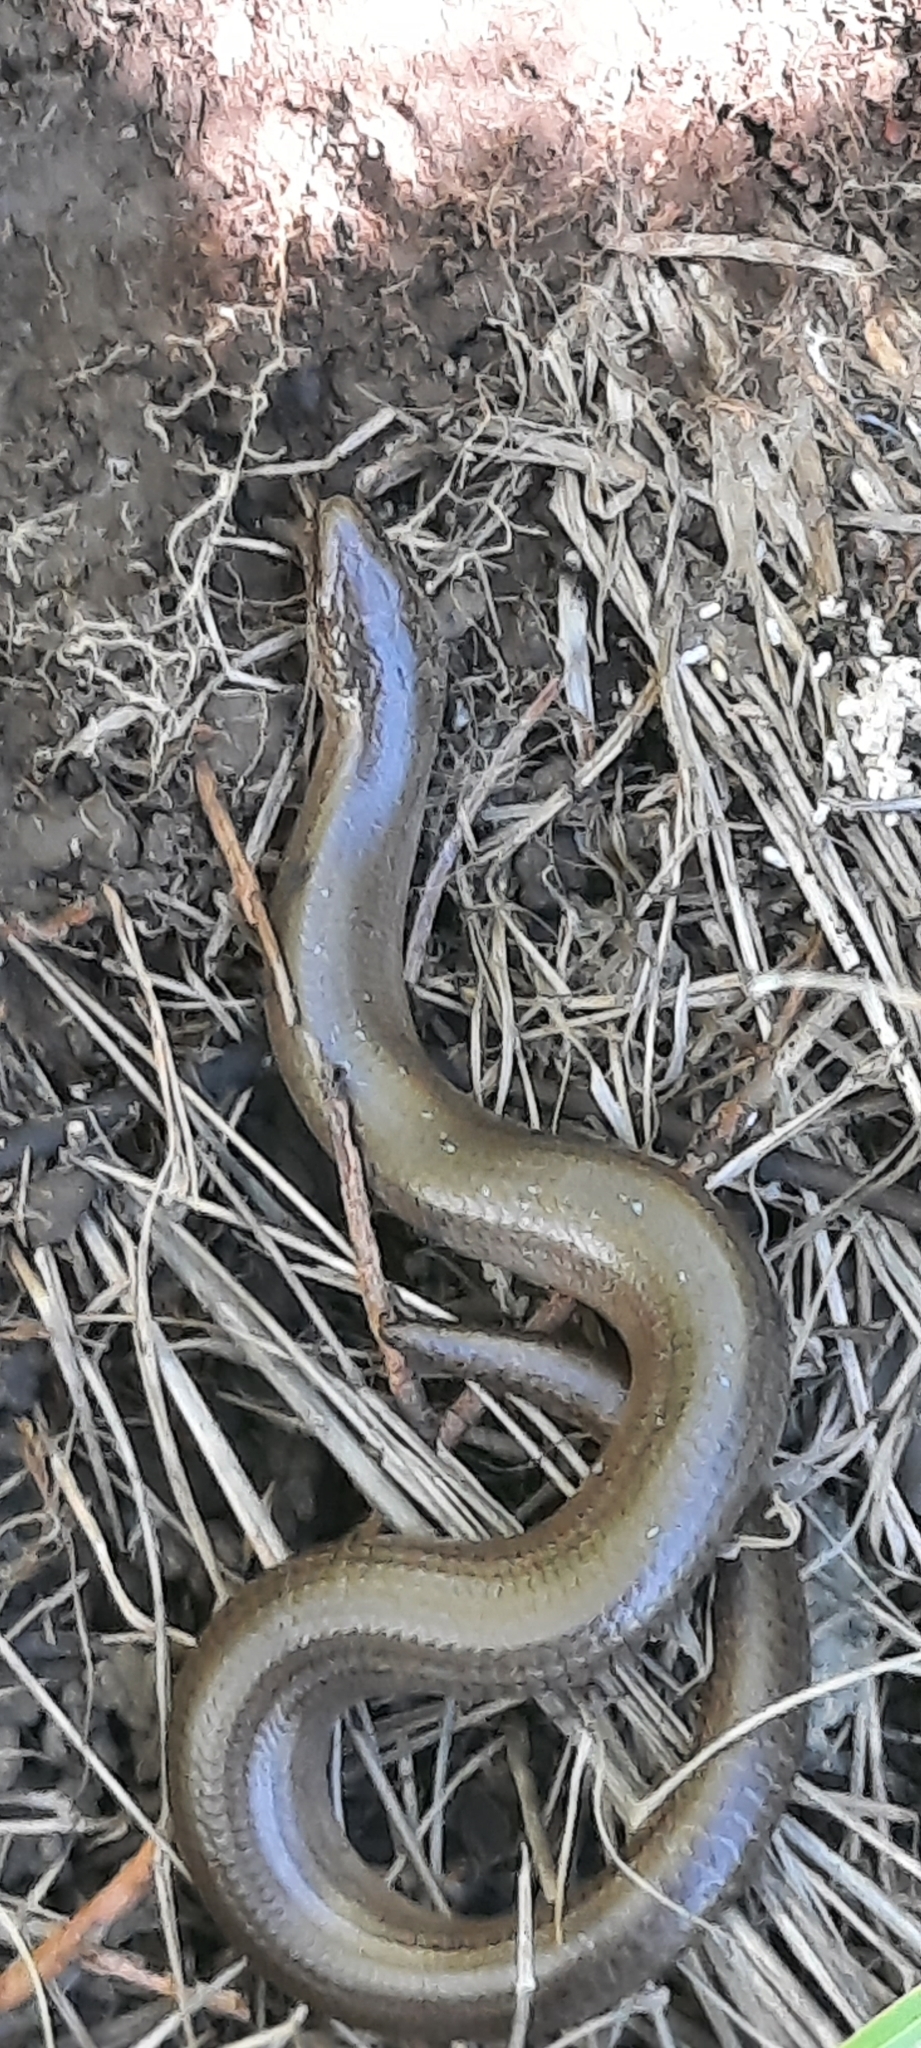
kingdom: Animalia
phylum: Chordata
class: Squamata
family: Anguidae
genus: Anguis
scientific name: Anguis fragilis
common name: Slow worm
